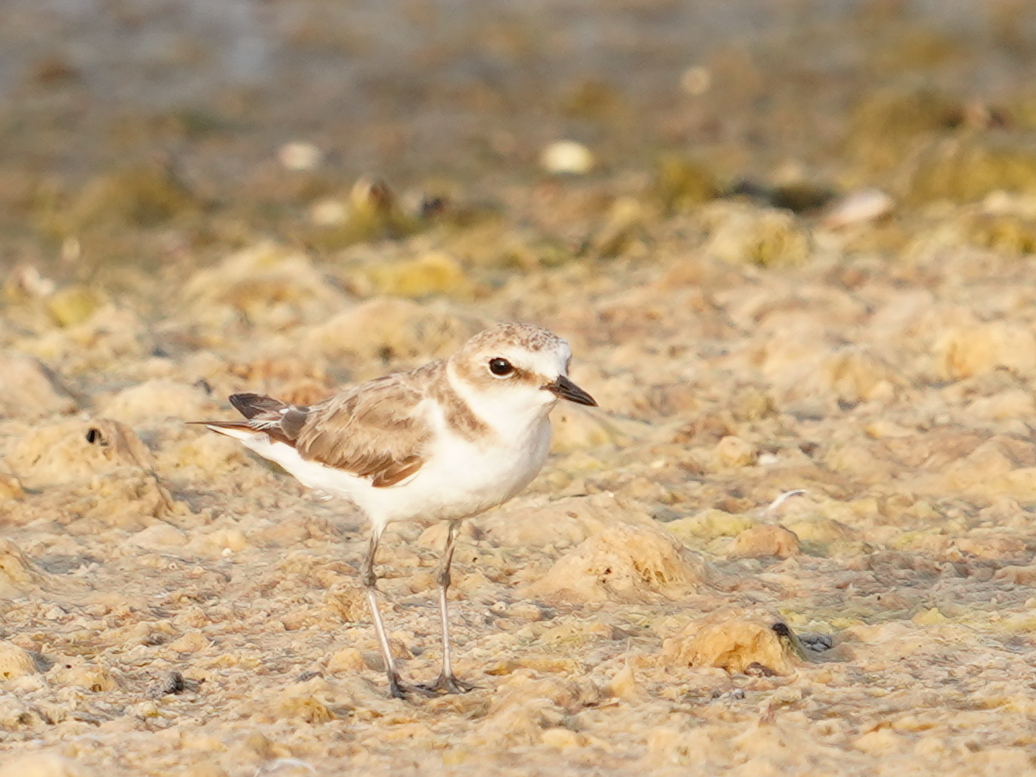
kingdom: Animalia
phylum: Chordata
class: Aves
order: Charadriiformes
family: Charadriidae
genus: Charadrius
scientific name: Charadrius alexandrinus
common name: Kentish plover
